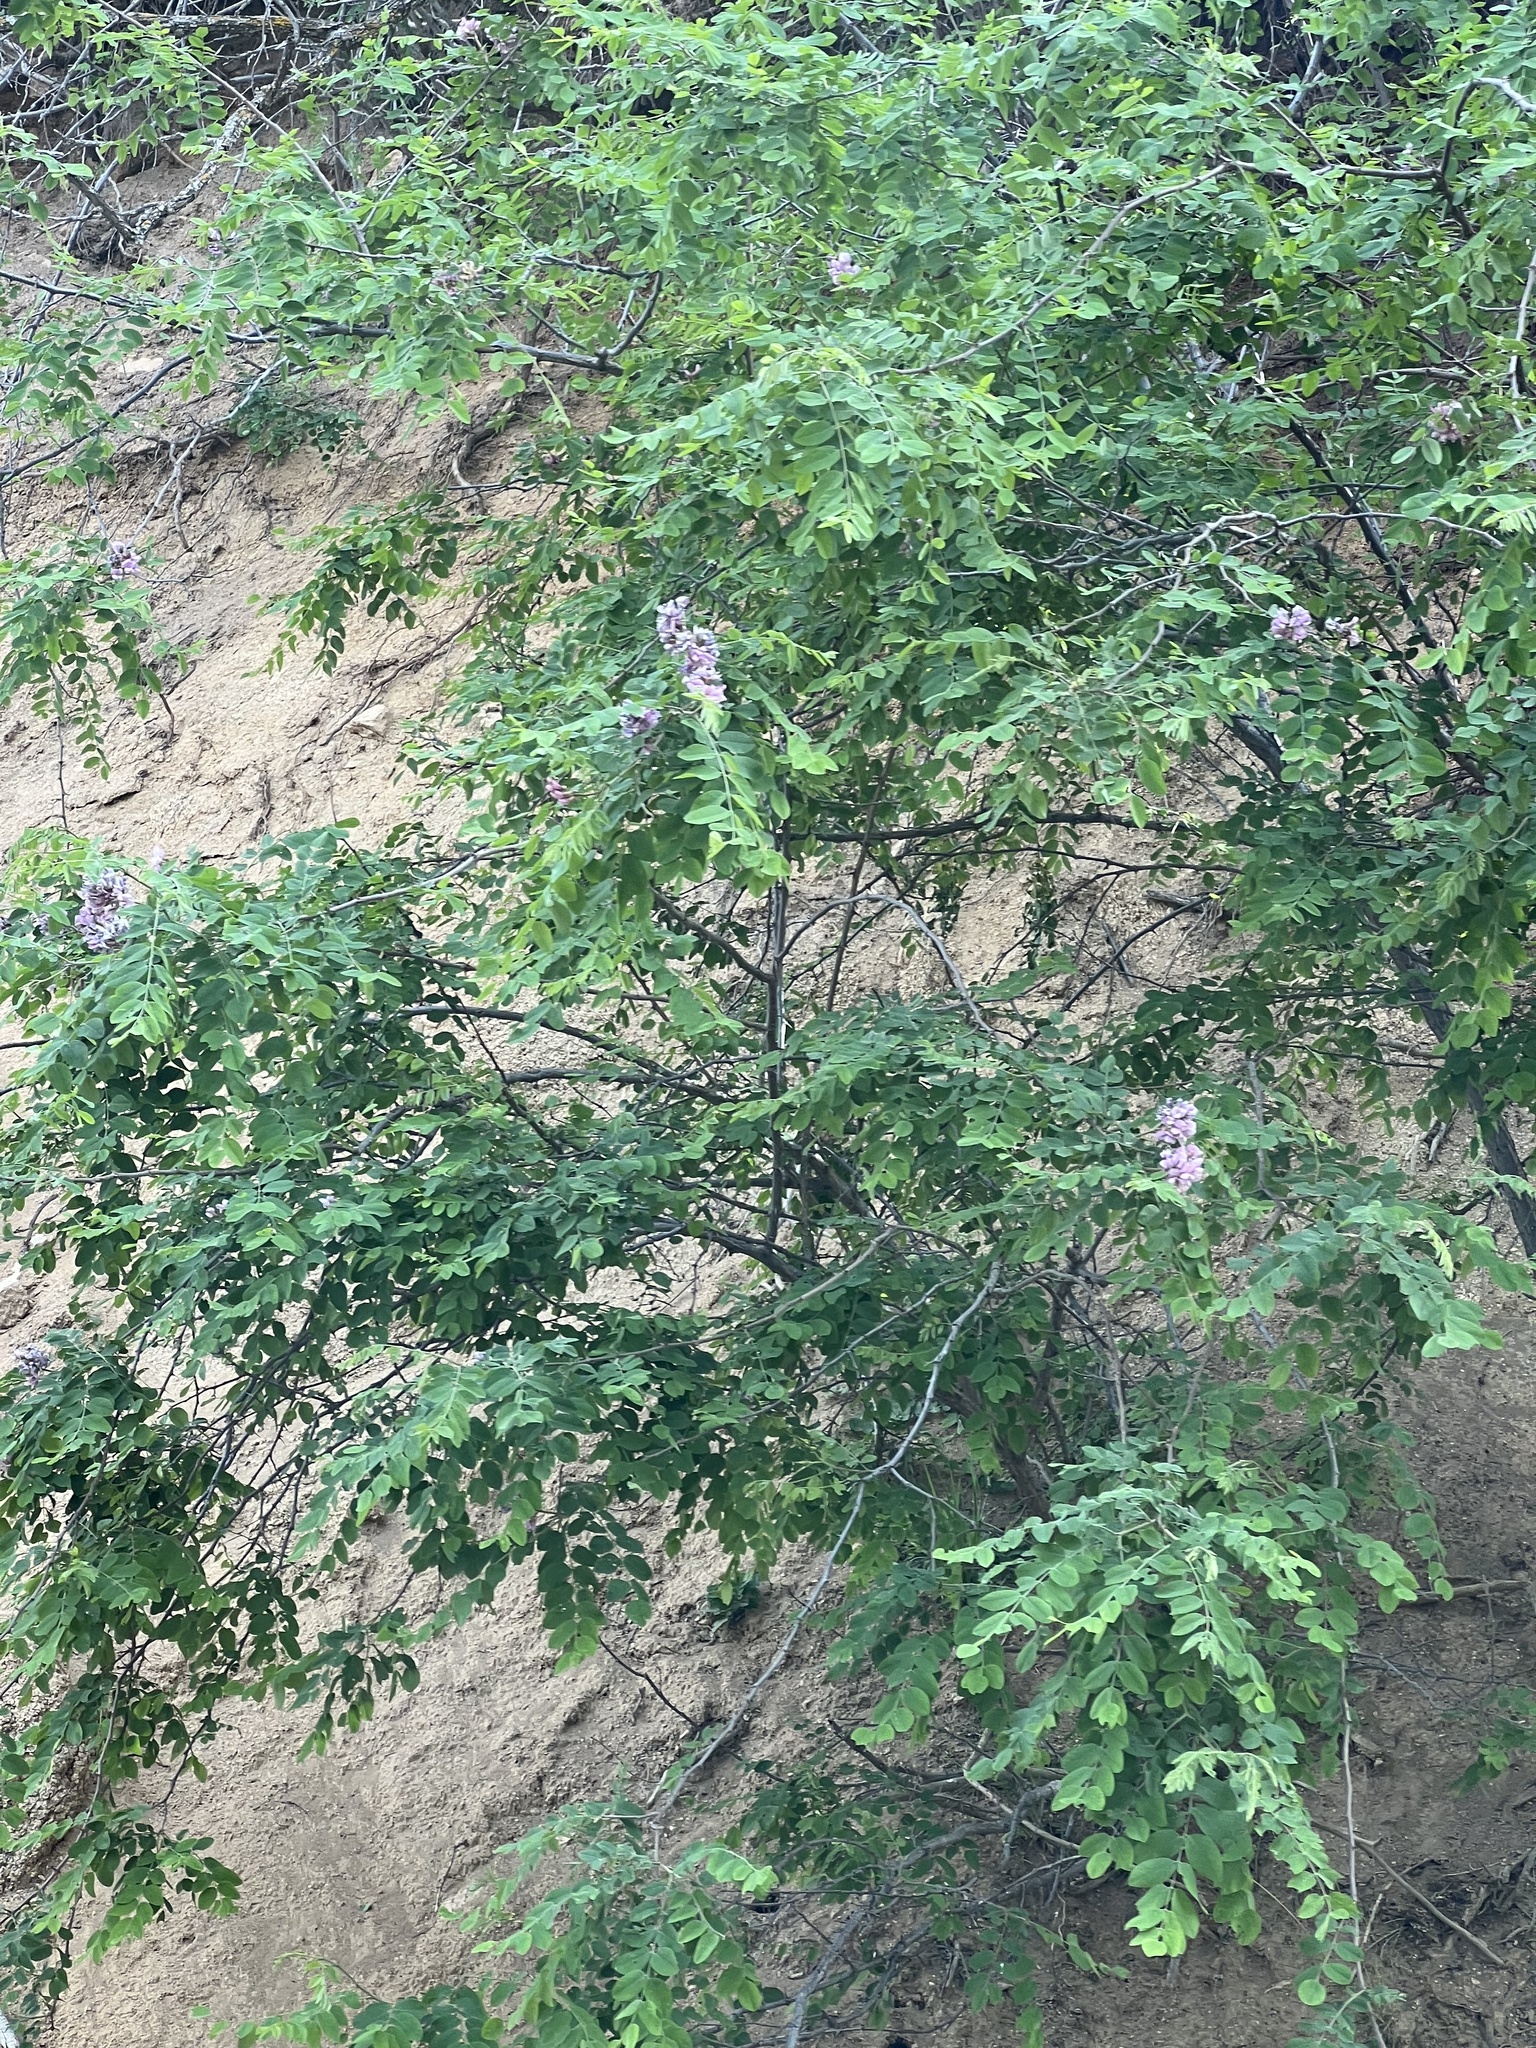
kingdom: Plantae
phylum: Tracheophyta
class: Magnoliopsida
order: Fabales
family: Fabaceae
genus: Robinia
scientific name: Robinia neomexicana
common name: New mexico locust
